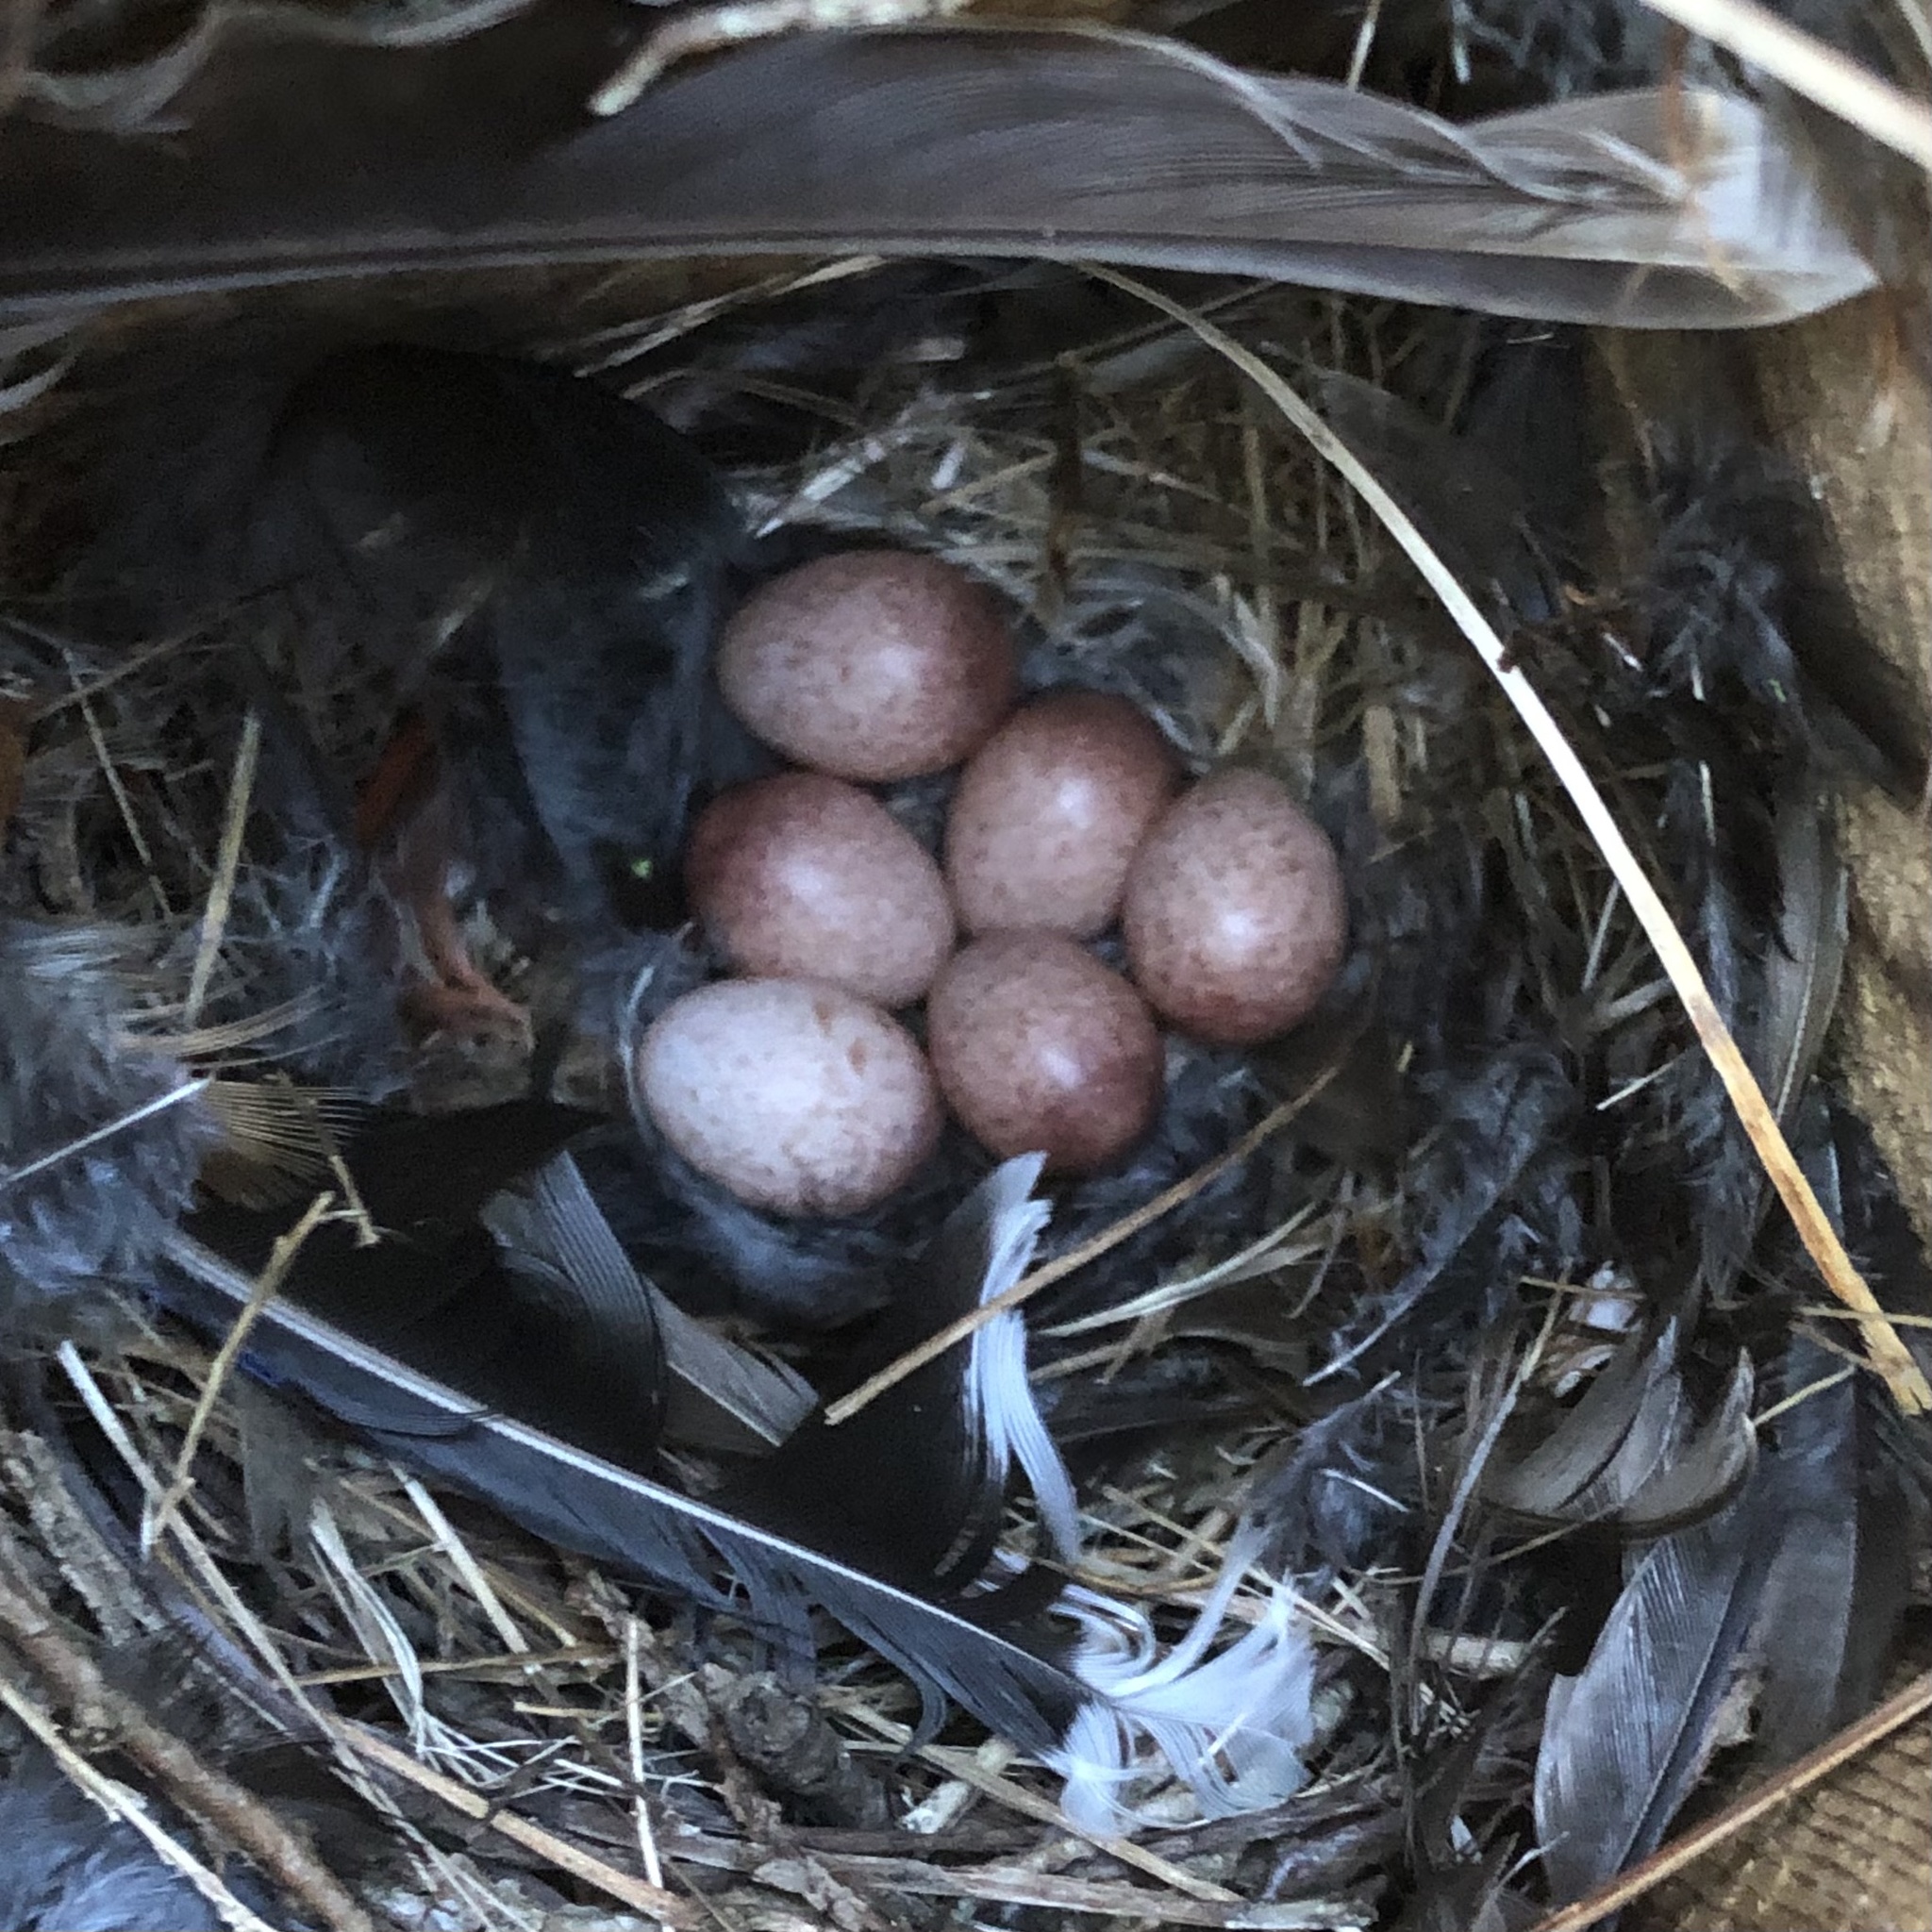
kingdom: Animalia
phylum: Chordata
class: Aves
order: Passeriformes
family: Troglodytidae
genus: Troglodytes
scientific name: Troglodytes aedon
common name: House wren
